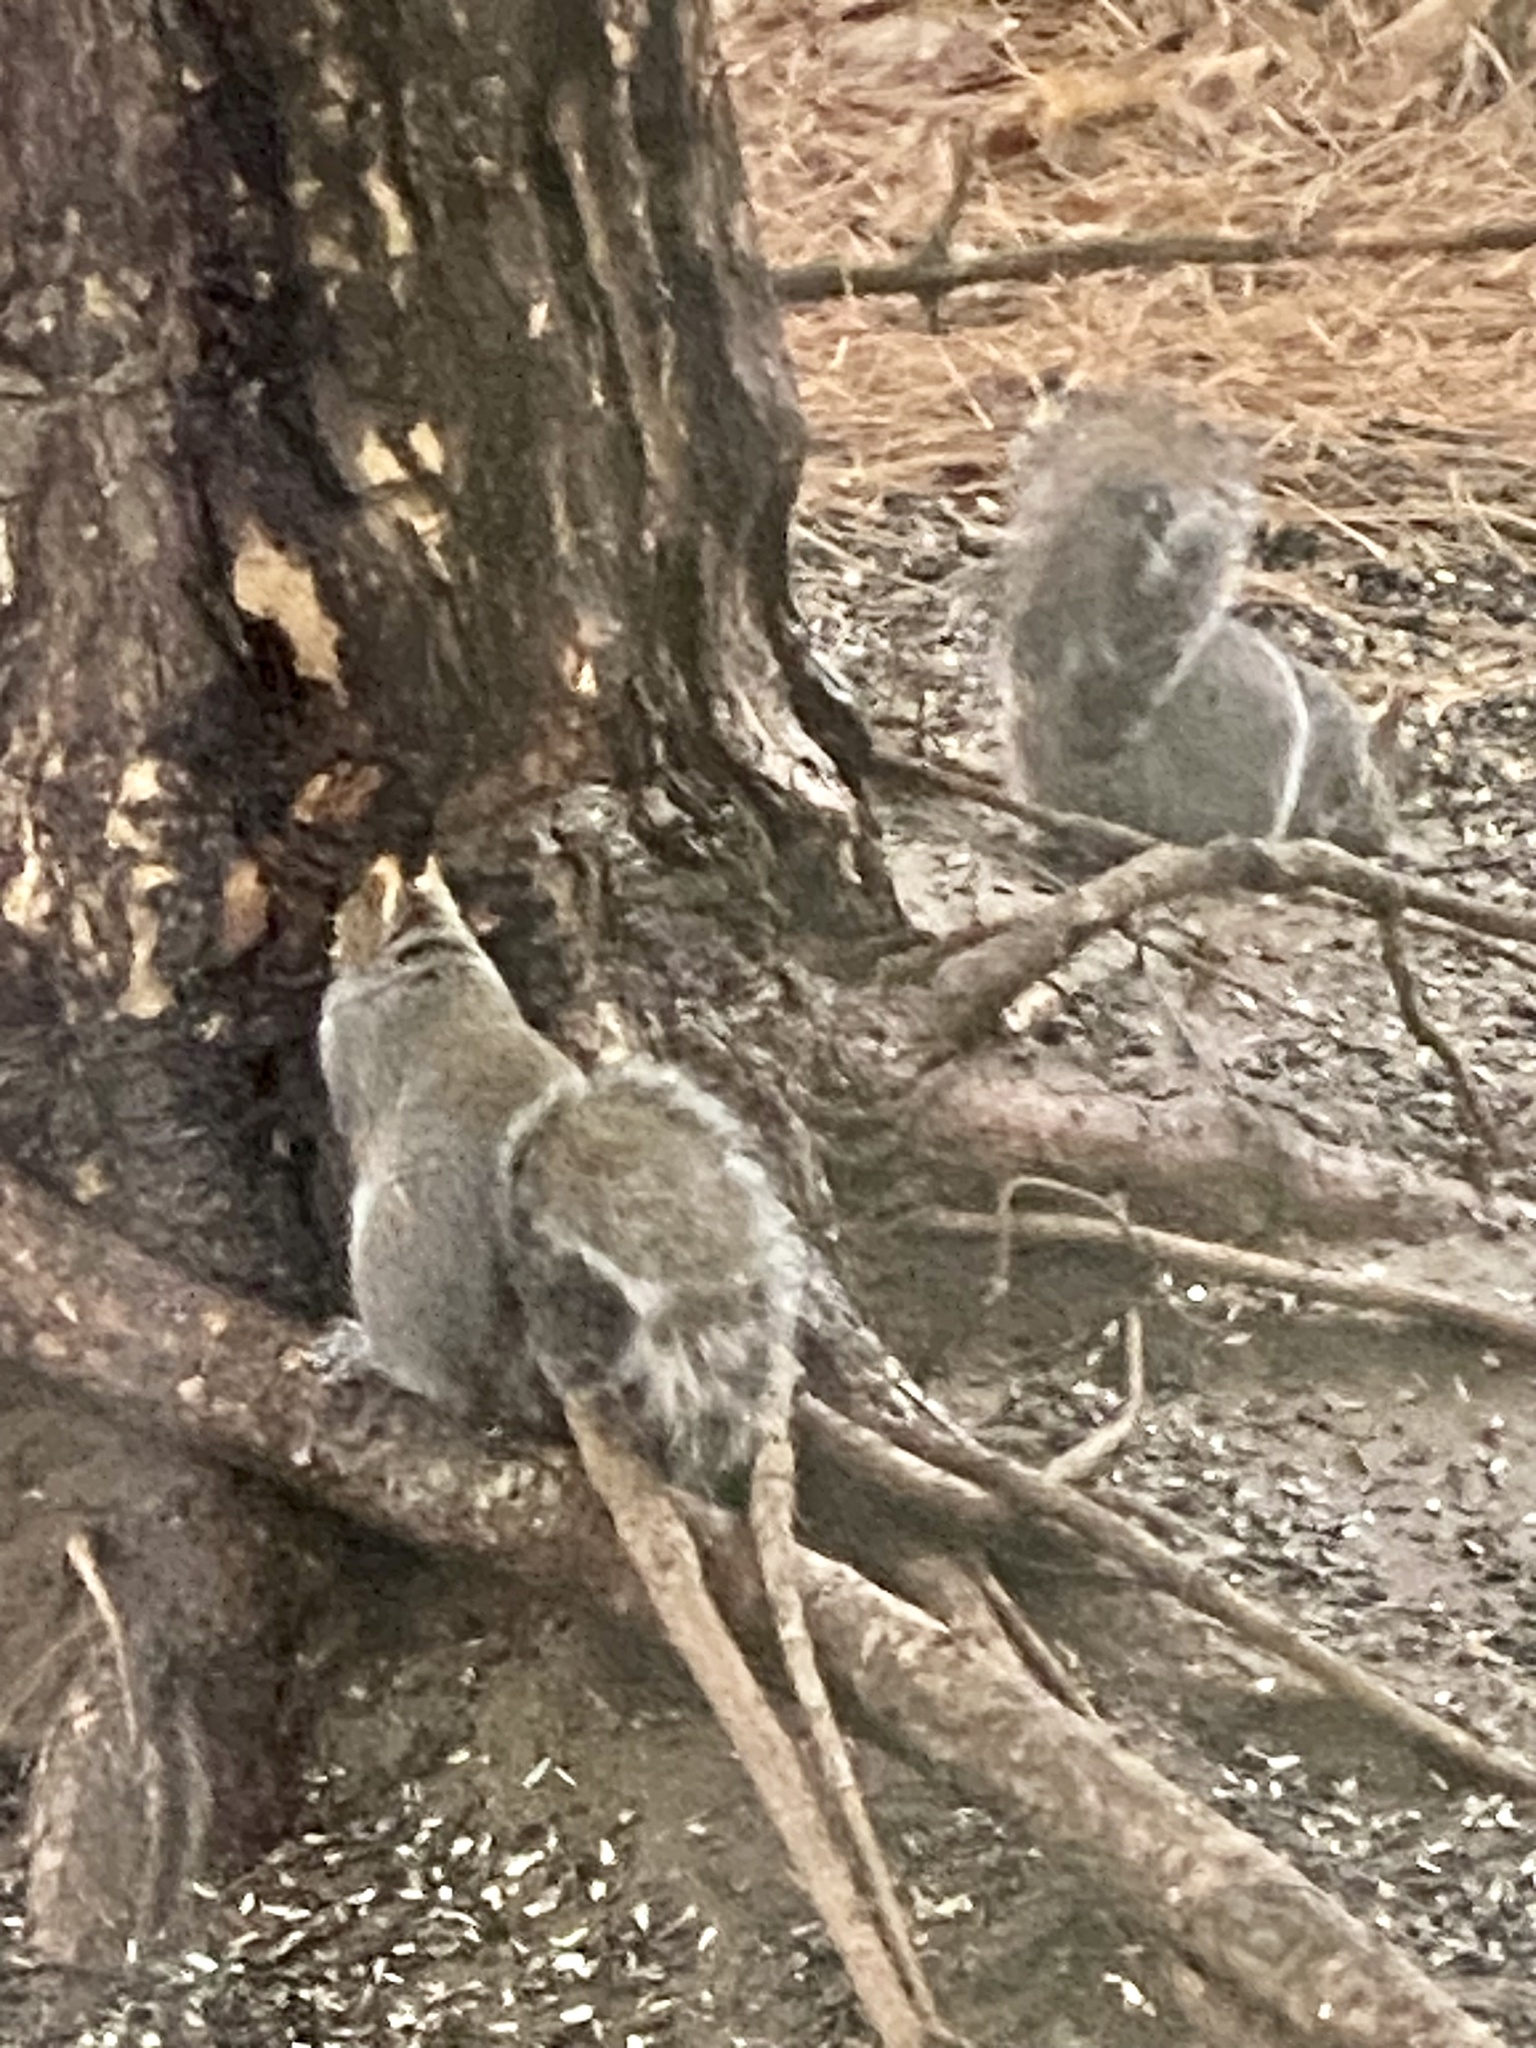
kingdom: Animalia
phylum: Chordata
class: Mammalia
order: Rodentia
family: Sciuridae
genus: Sciurus
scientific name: Sciurus carolinensis
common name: Eastern gray squirrel
